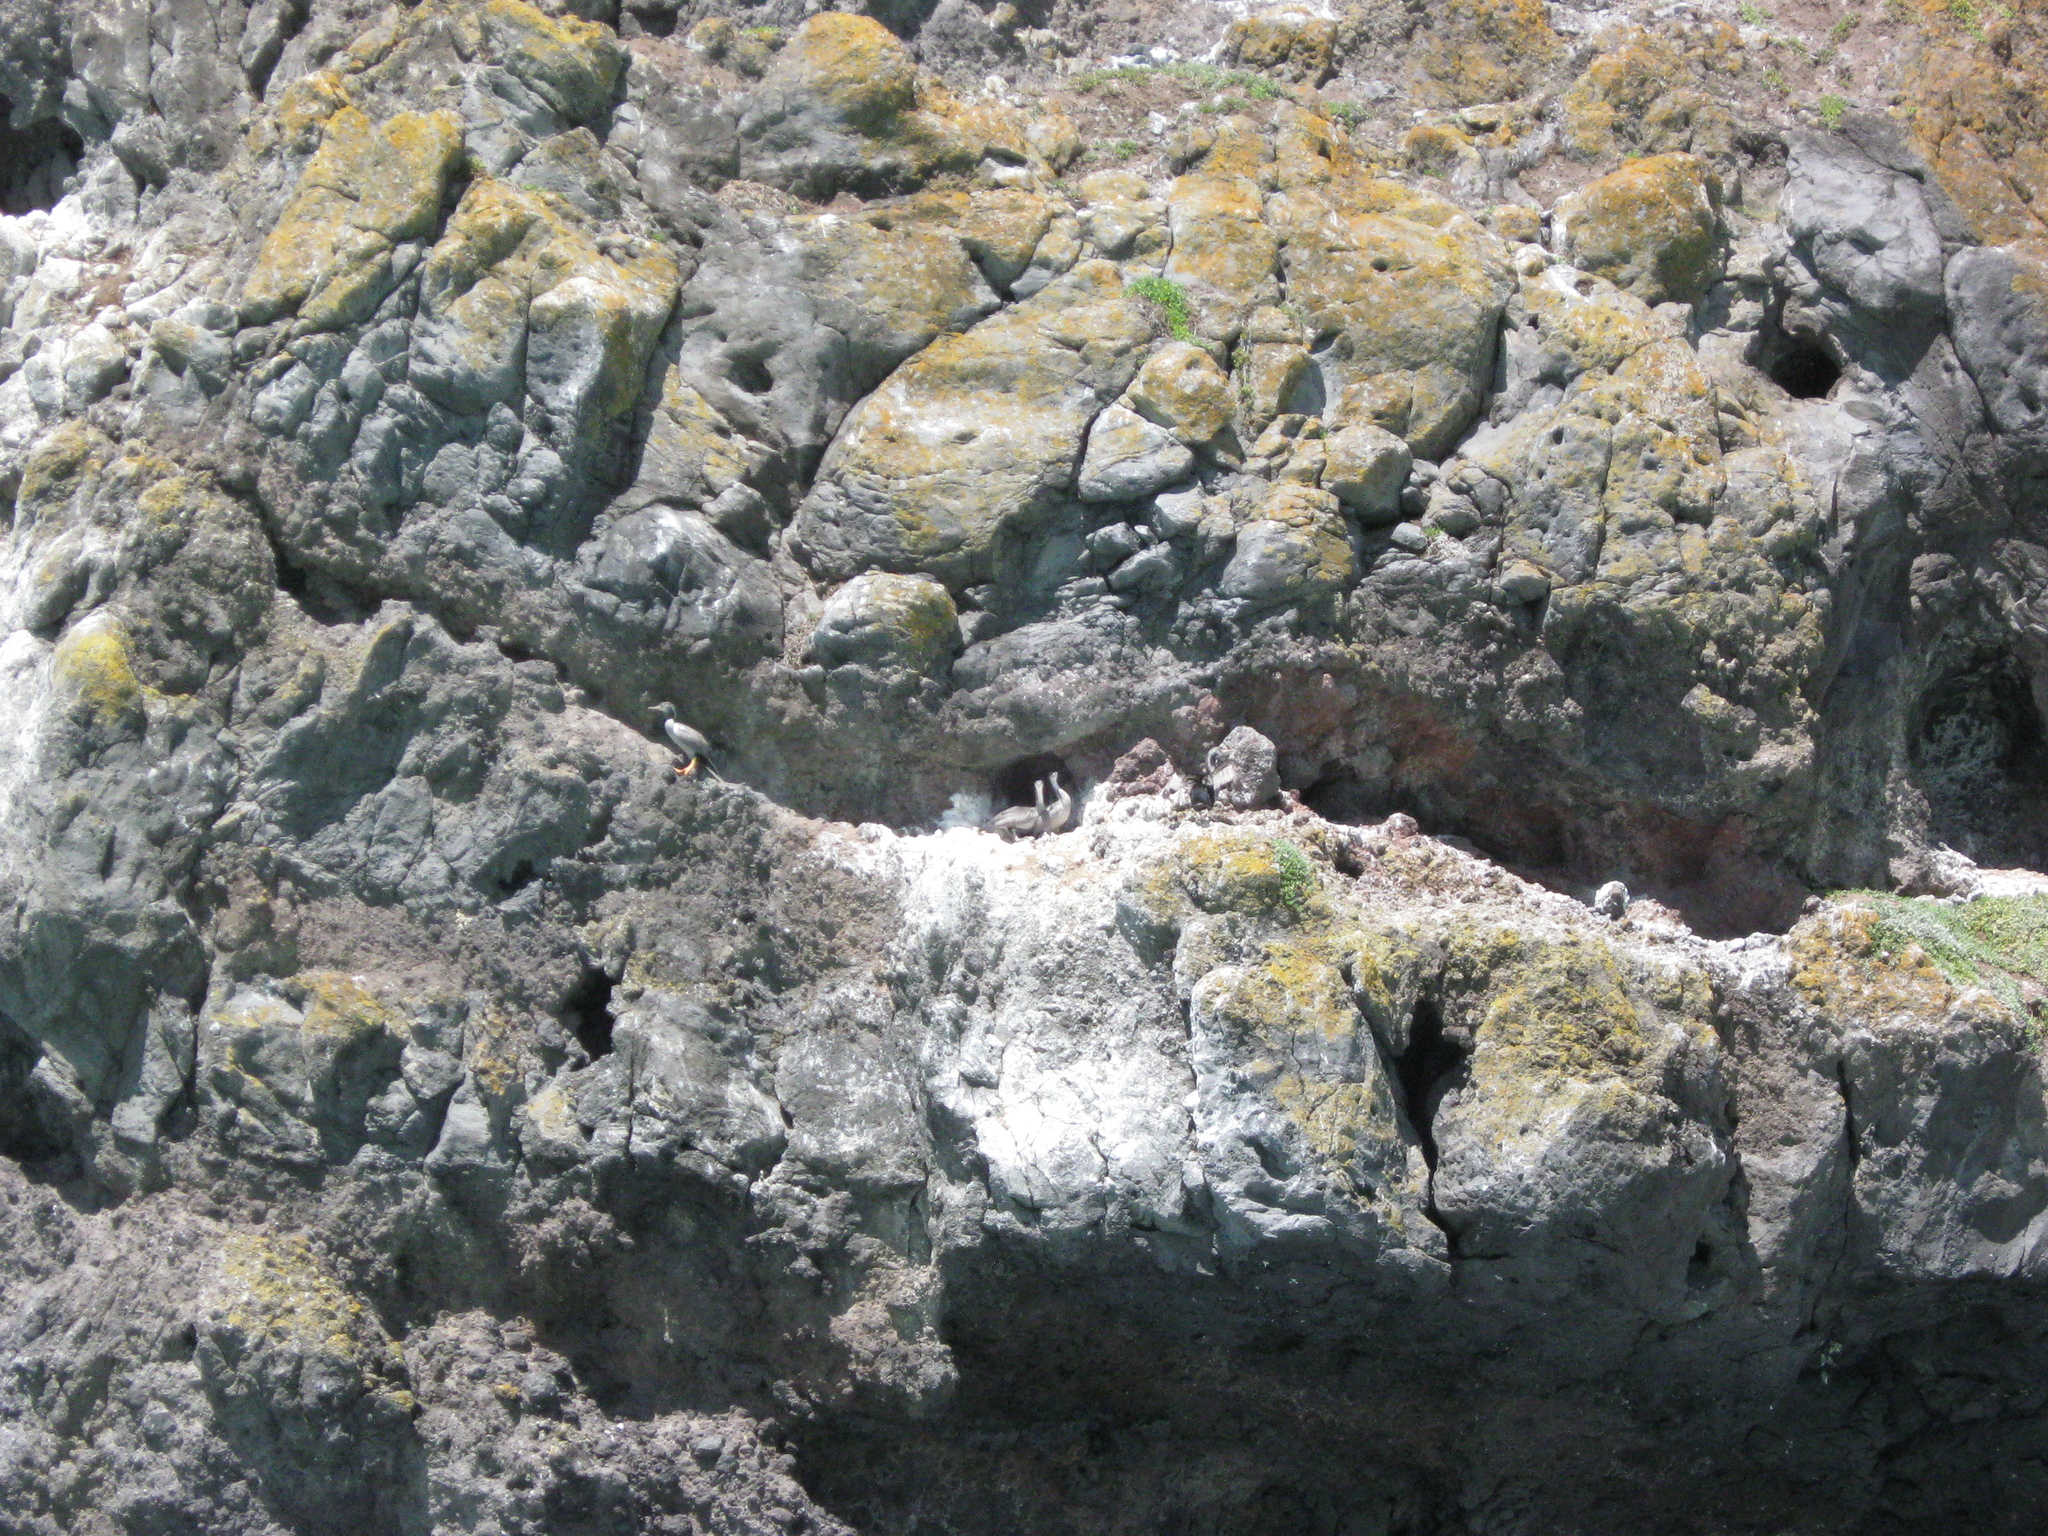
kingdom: Animalia
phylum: Chordata
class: Aves
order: Suliformes
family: Phalacrocoracidae
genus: Phalacrocorax
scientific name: Phalacrocorax punctatus
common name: Spotted shag
